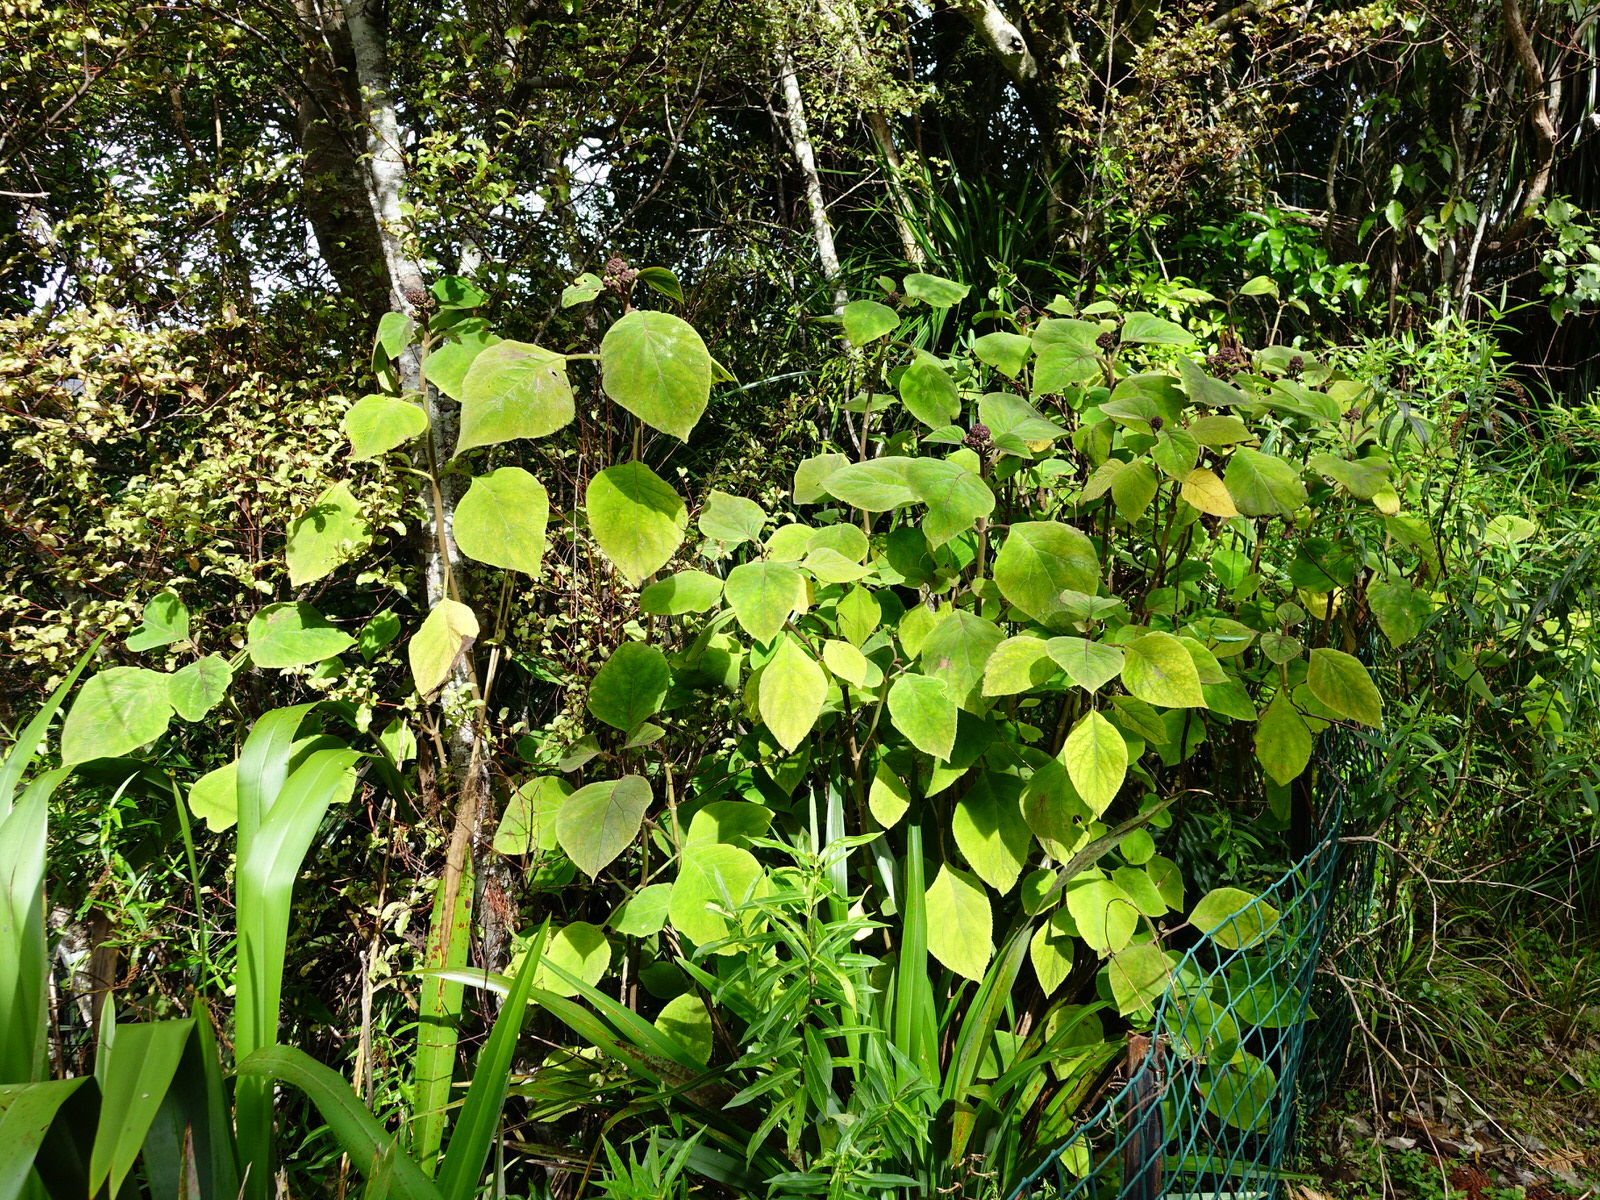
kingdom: Plantae
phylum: Tracheophyta
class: Magnoliopsida
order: Asterales
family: Asteraceae
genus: Bartlettina
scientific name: Bartlettina sordida
